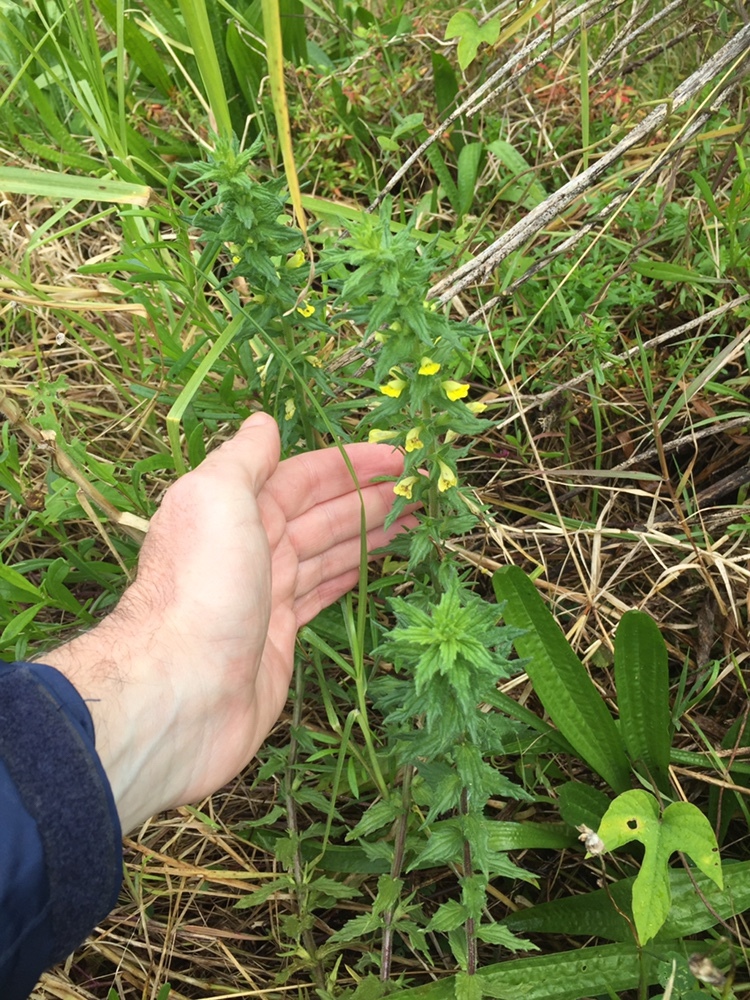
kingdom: Plantae
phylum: Tracheophyta
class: Magnoliopsida
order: Lamiales
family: Orobanchaceae
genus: Bellardia
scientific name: Bellardia viscosa
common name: Sticky parentucellia
